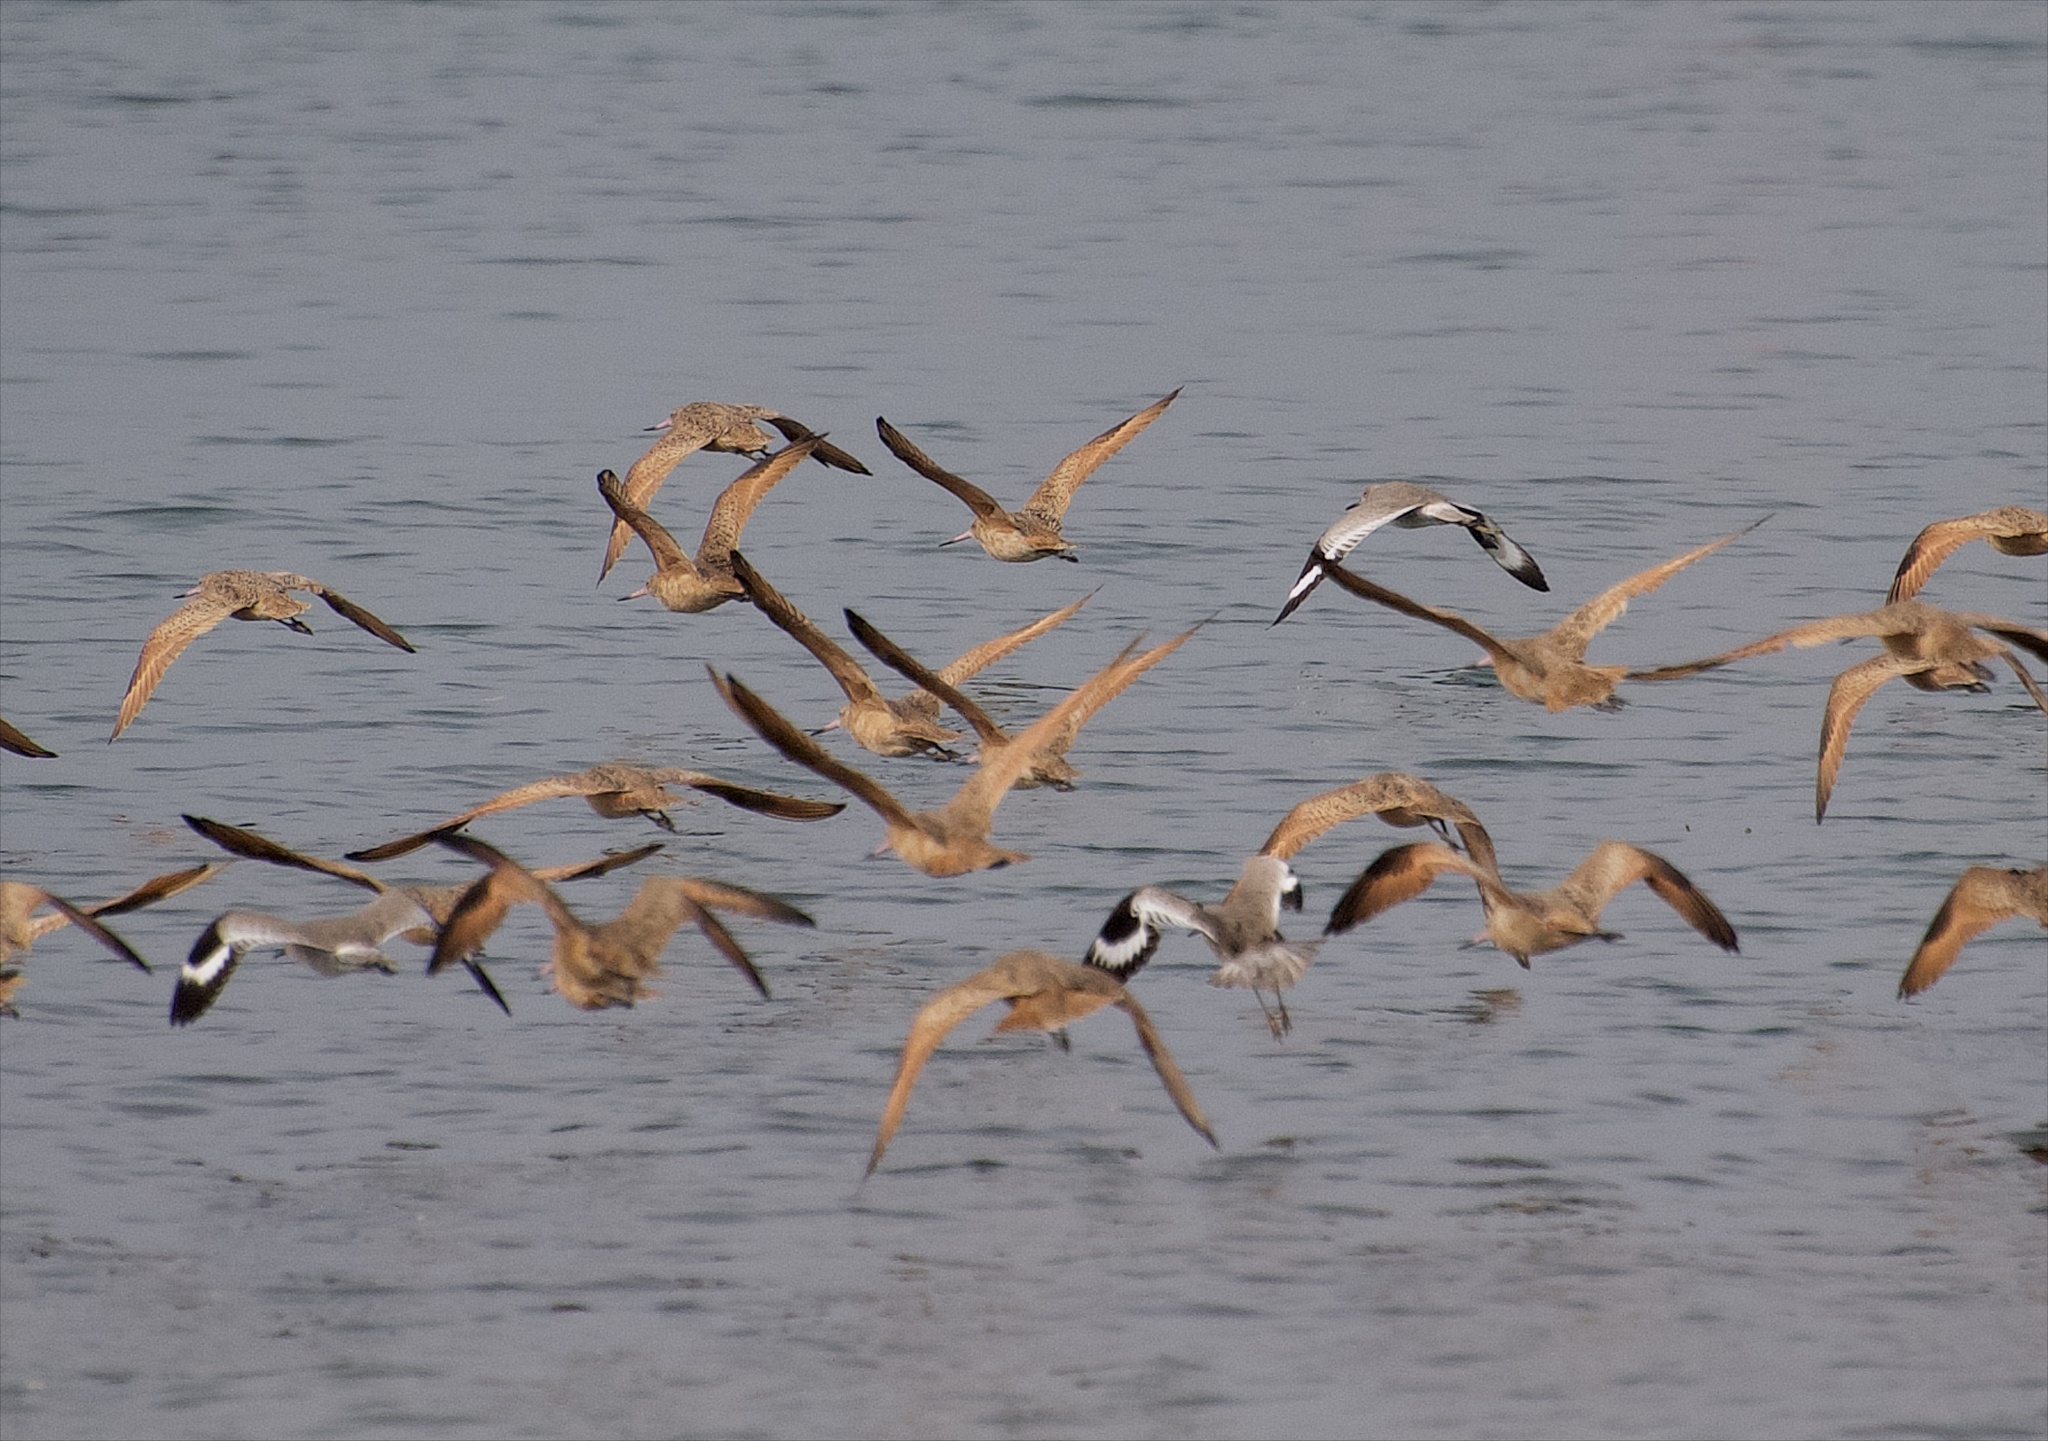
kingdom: Animalia
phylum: Chordata
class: Aves
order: Charadriiformes
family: Scolopacidae
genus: Limosa
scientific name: Limosa fedoa
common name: Marbled godwit
